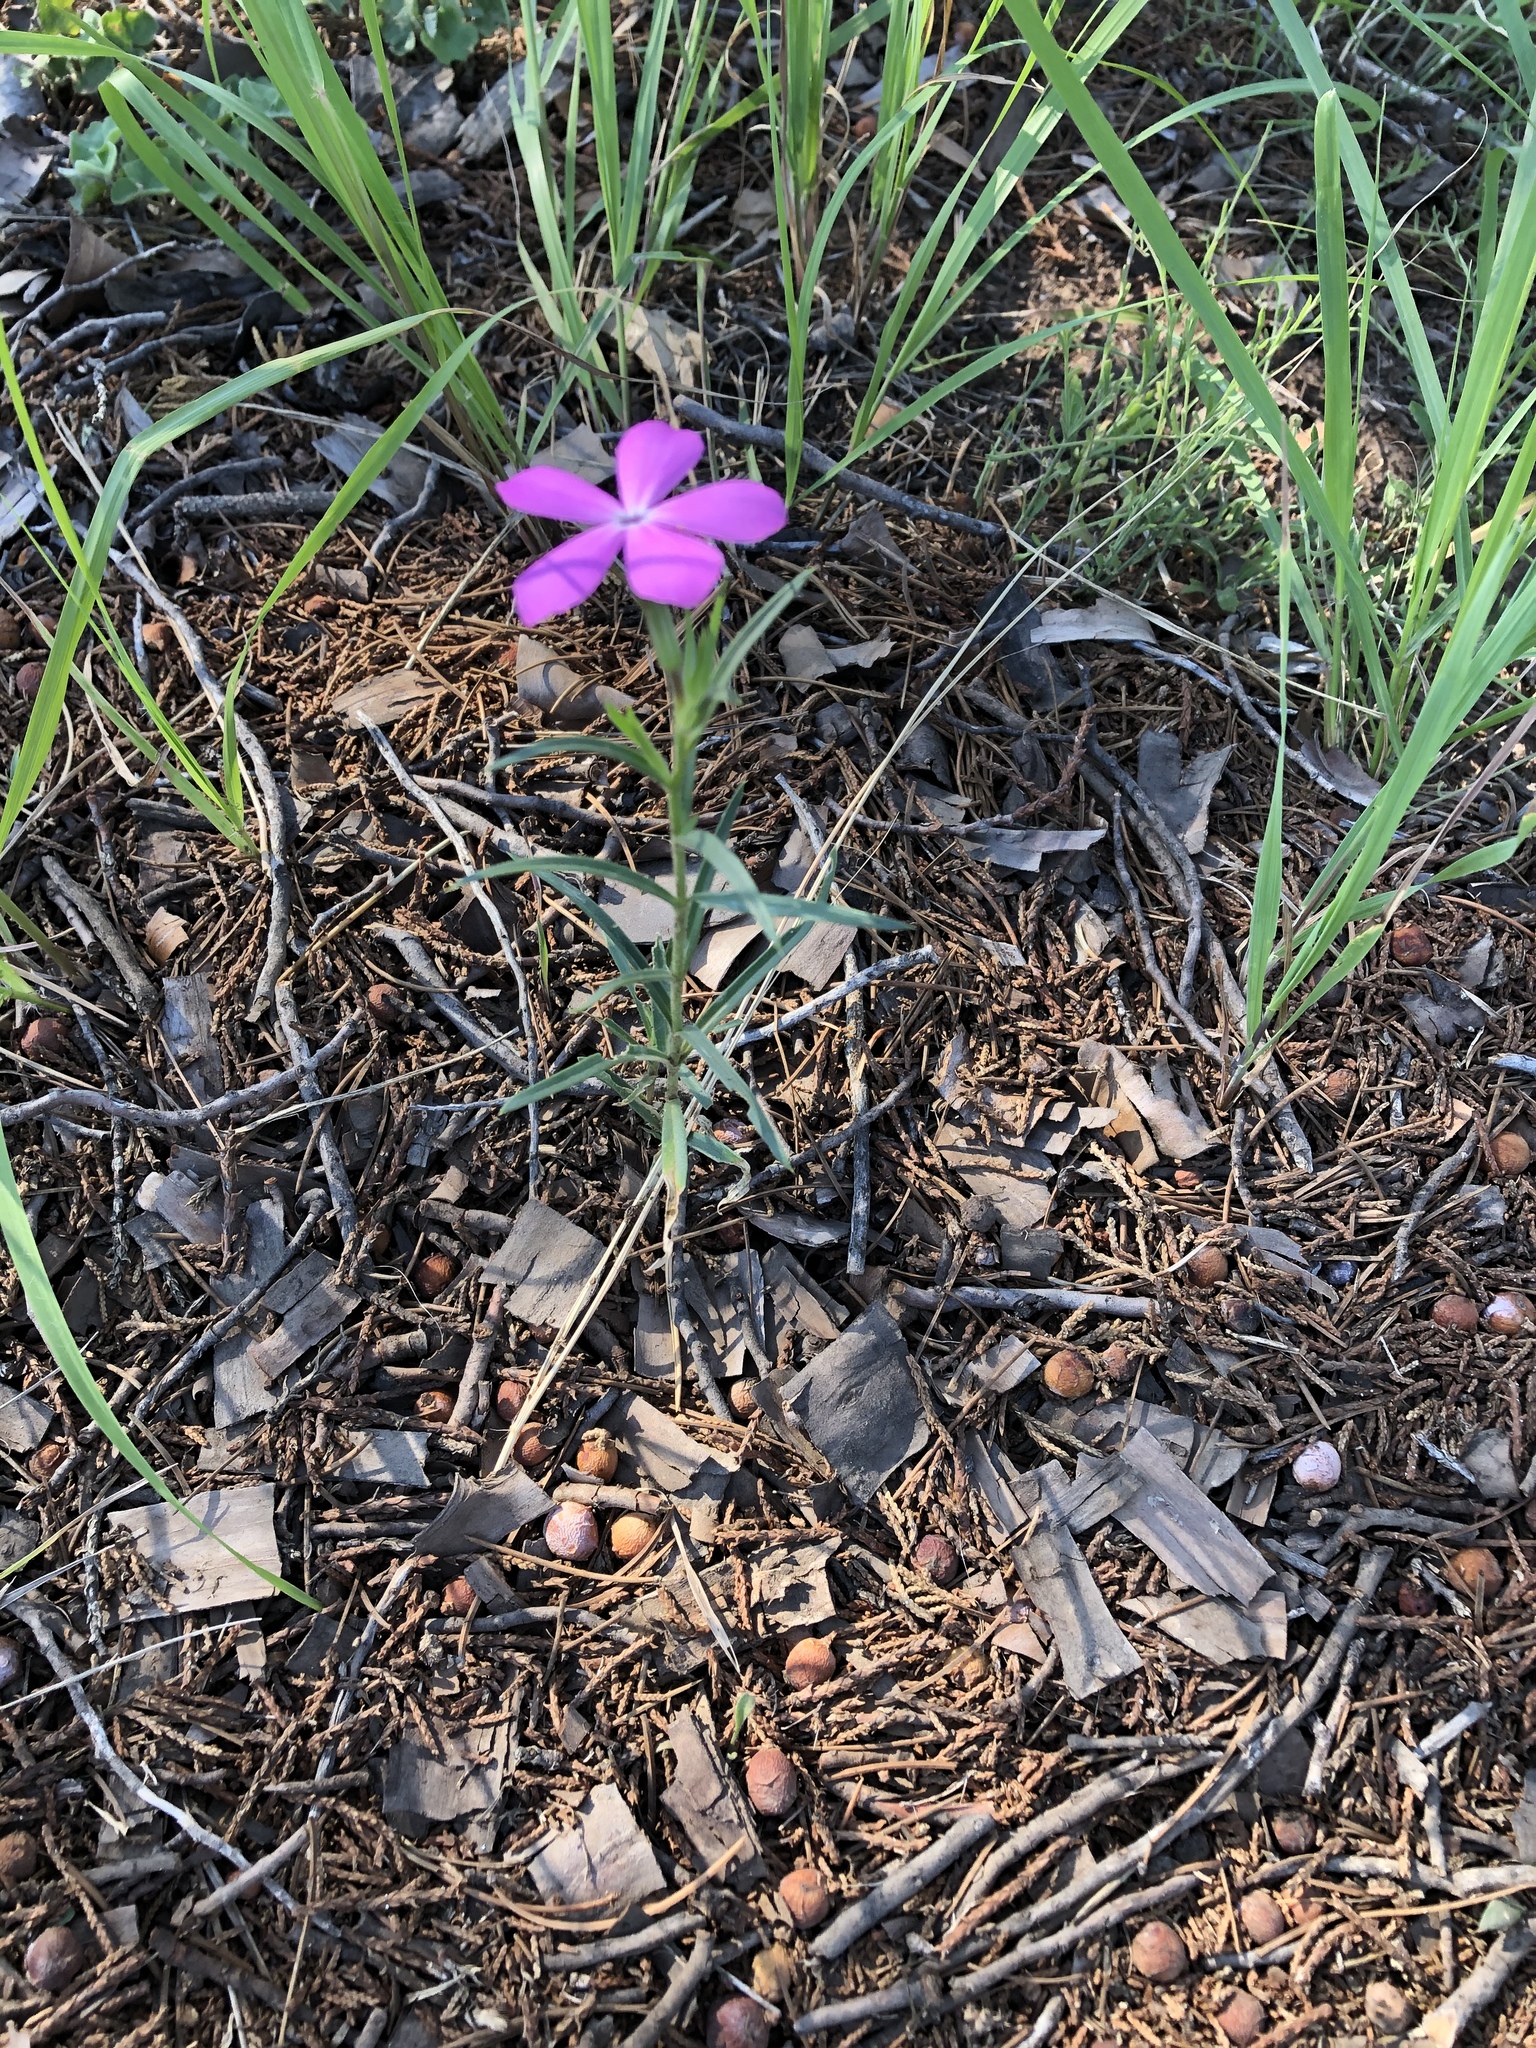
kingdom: Plantae
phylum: Tracheophyta
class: Magnoliopsida
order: Ericales
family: Polemoniaceae
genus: Phlox
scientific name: Phlox nana
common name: Santa fe phlox
